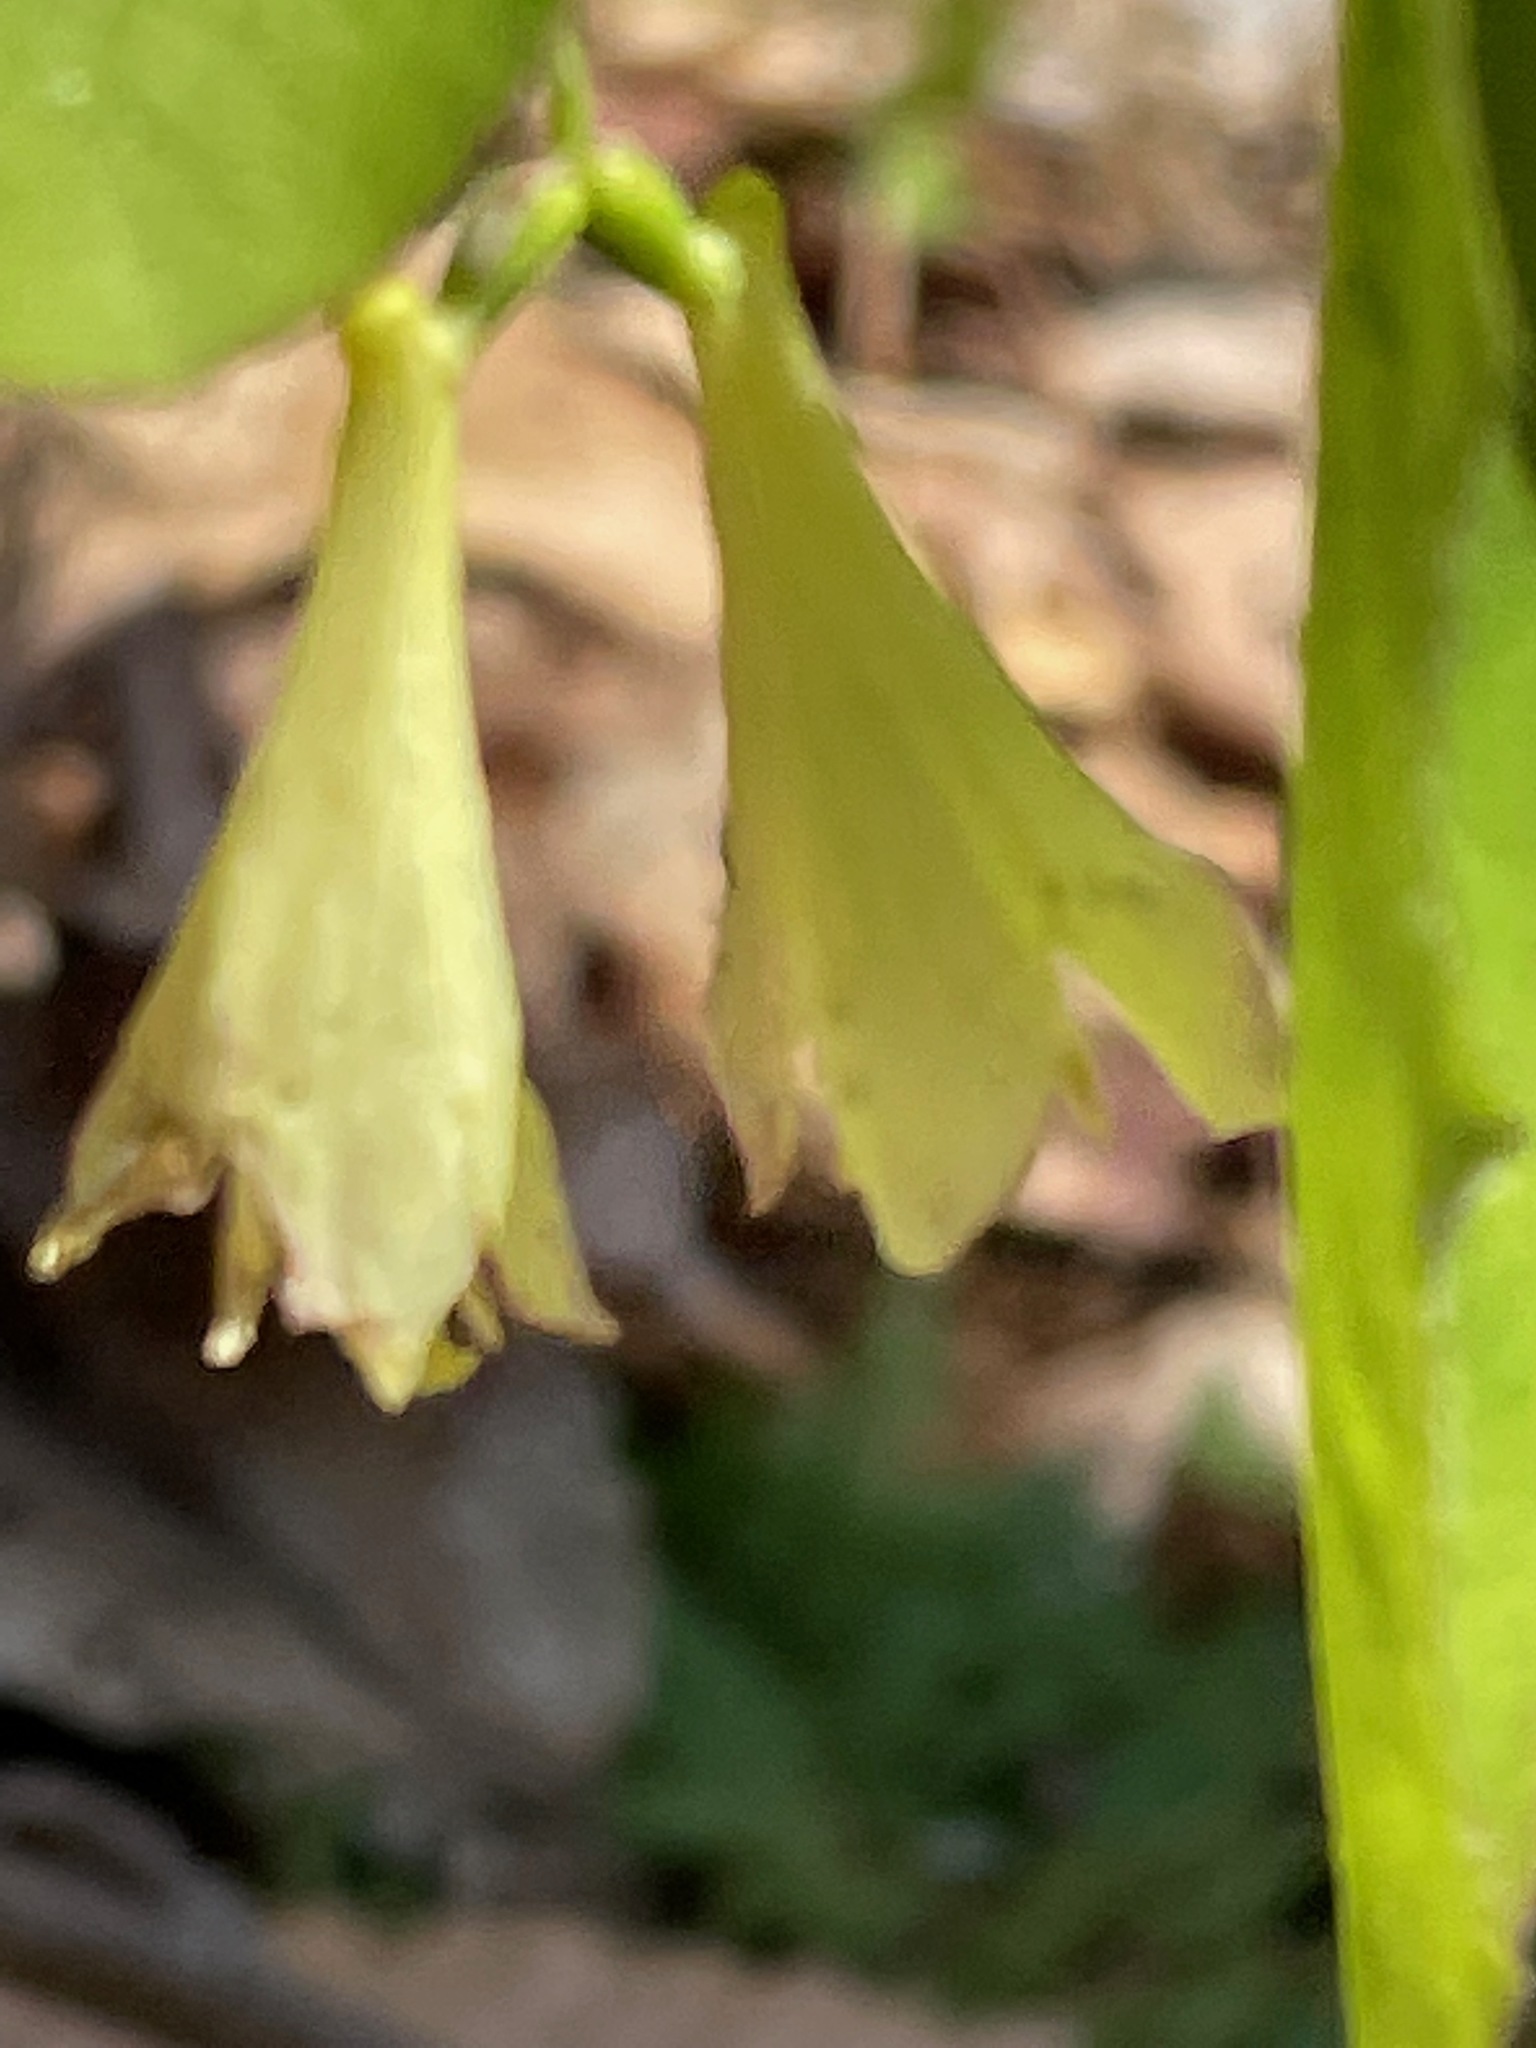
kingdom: Plantae
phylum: Tracheophyta
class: Magnoliopsida
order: Dipsacales
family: Caprifoliaceae
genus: Lonicera
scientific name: Lonicera canadensis
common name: American fly-honeysuckle
